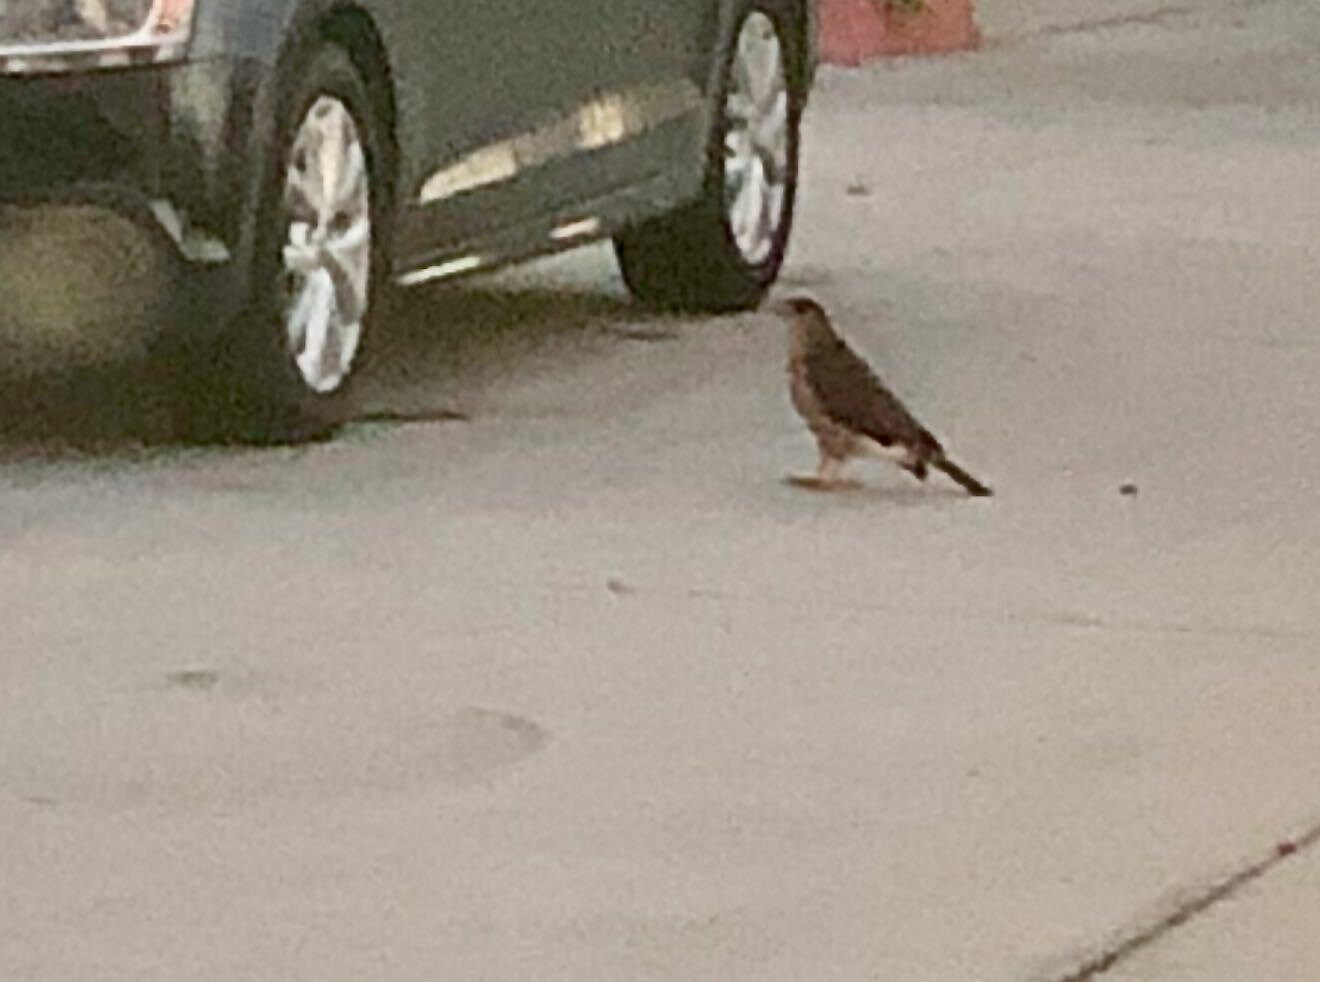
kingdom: Animalia
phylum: Chordata
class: Aves
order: Accipitriformes
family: Accipitridae
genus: Accipiter
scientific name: Accipiter cooperii
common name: Cooper's hawk
